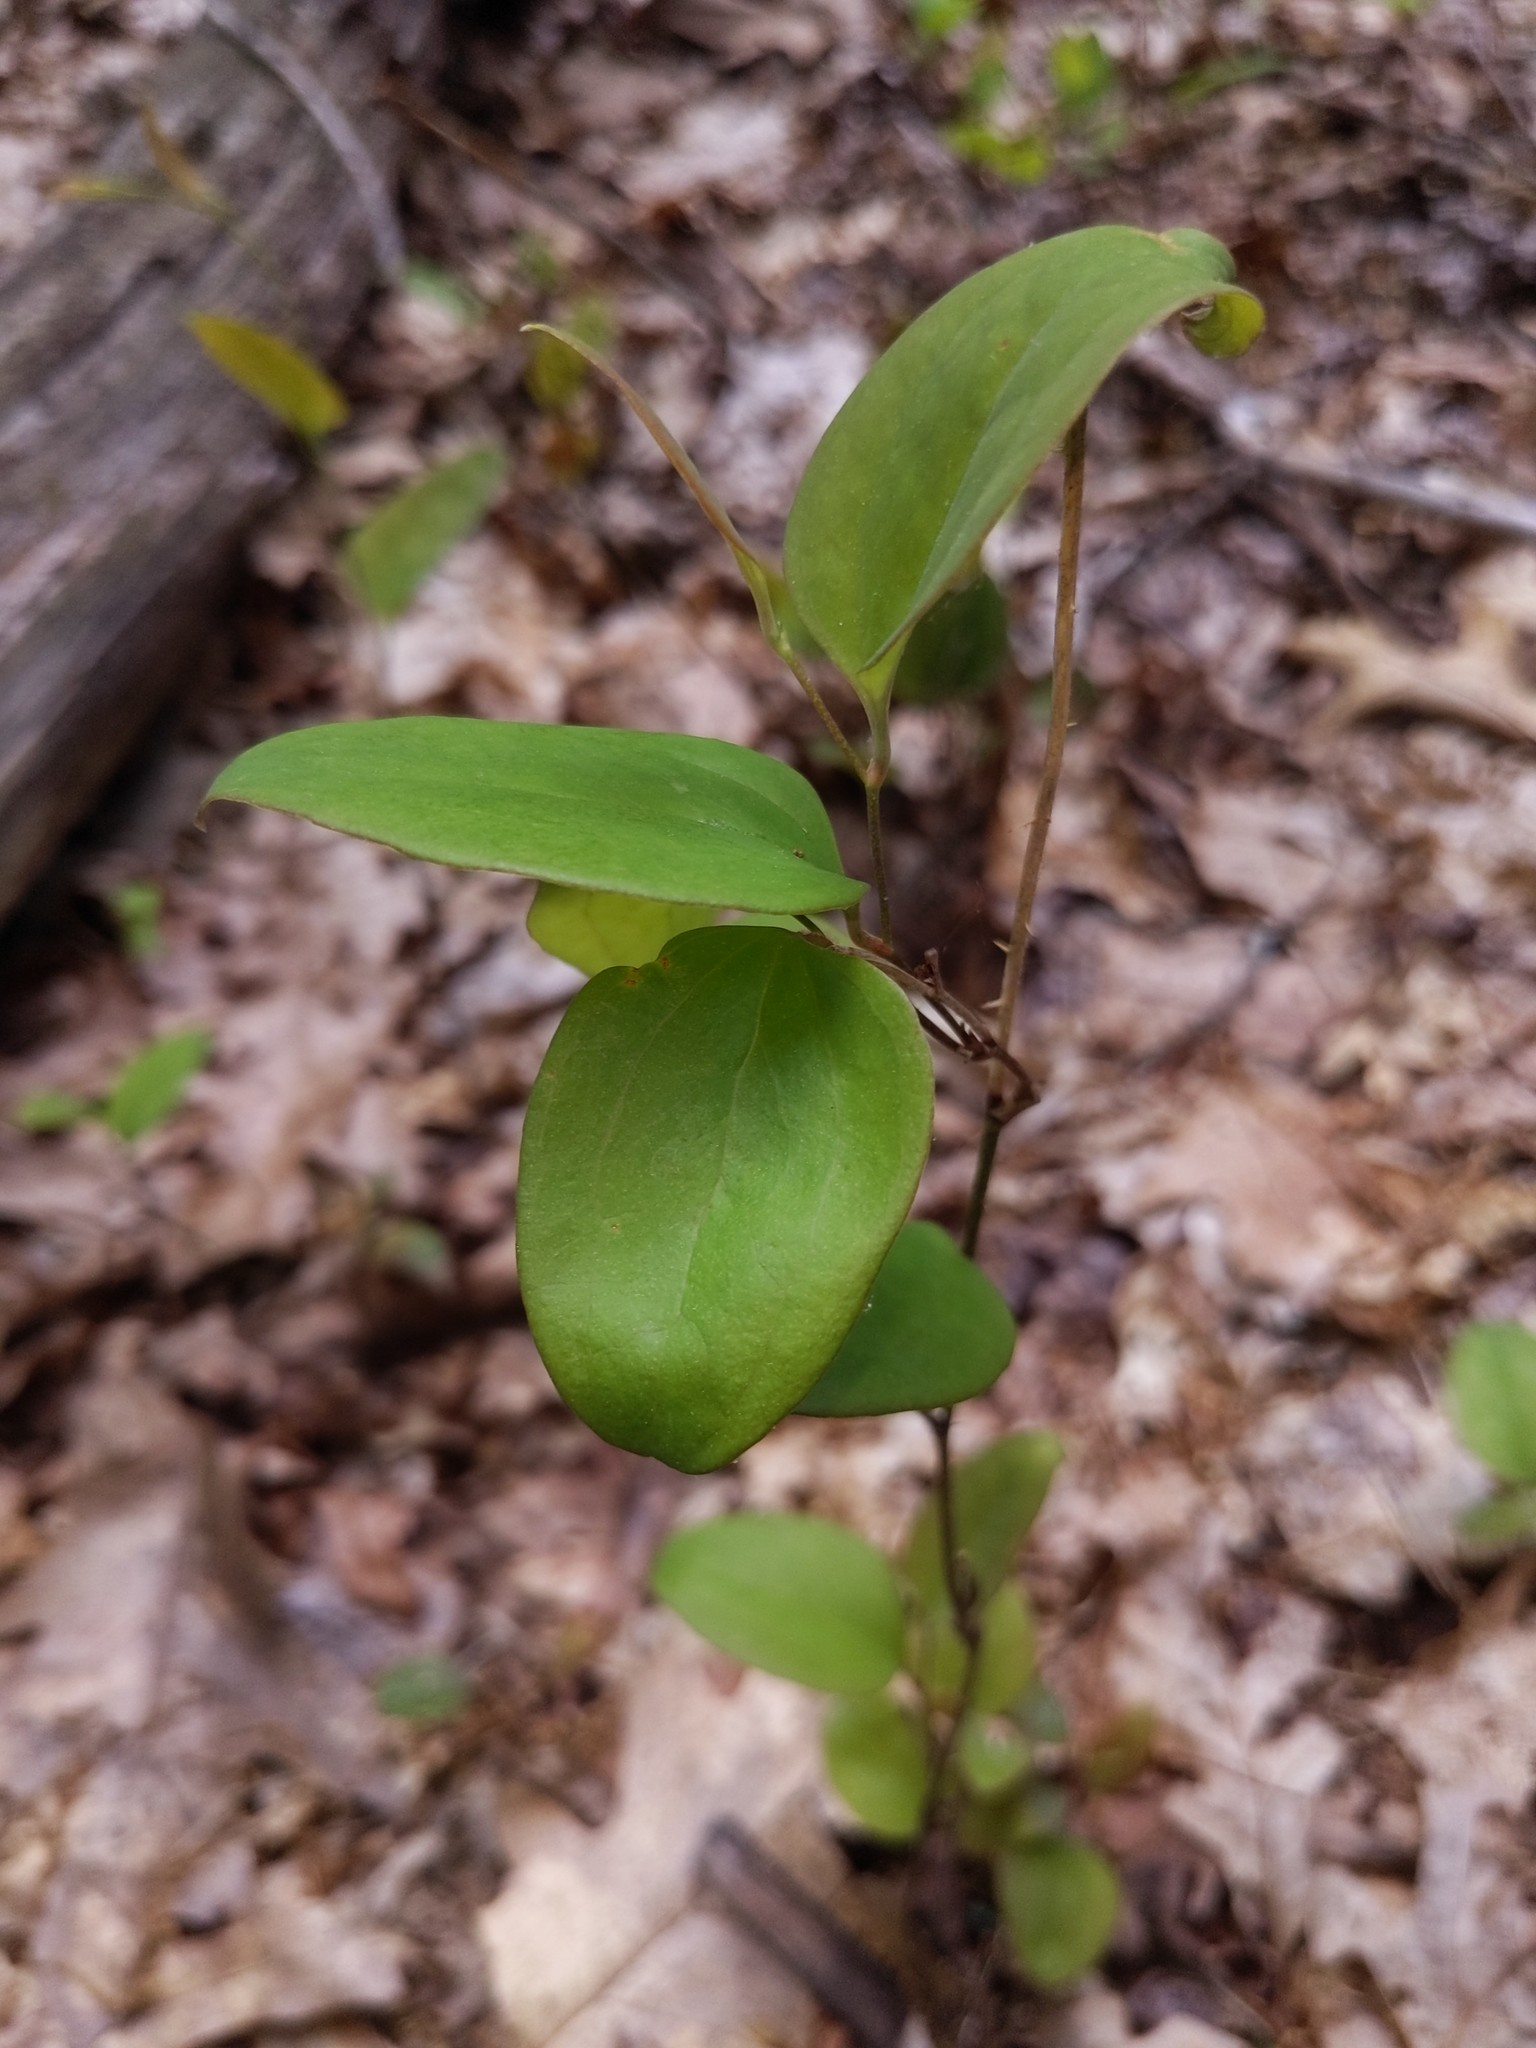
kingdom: Plantae
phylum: Tracheophyta
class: Liliopsida
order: Liliales
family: Smilacaceae
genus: Smilax
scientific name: Smilax glauca
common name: Cat greenbrier
